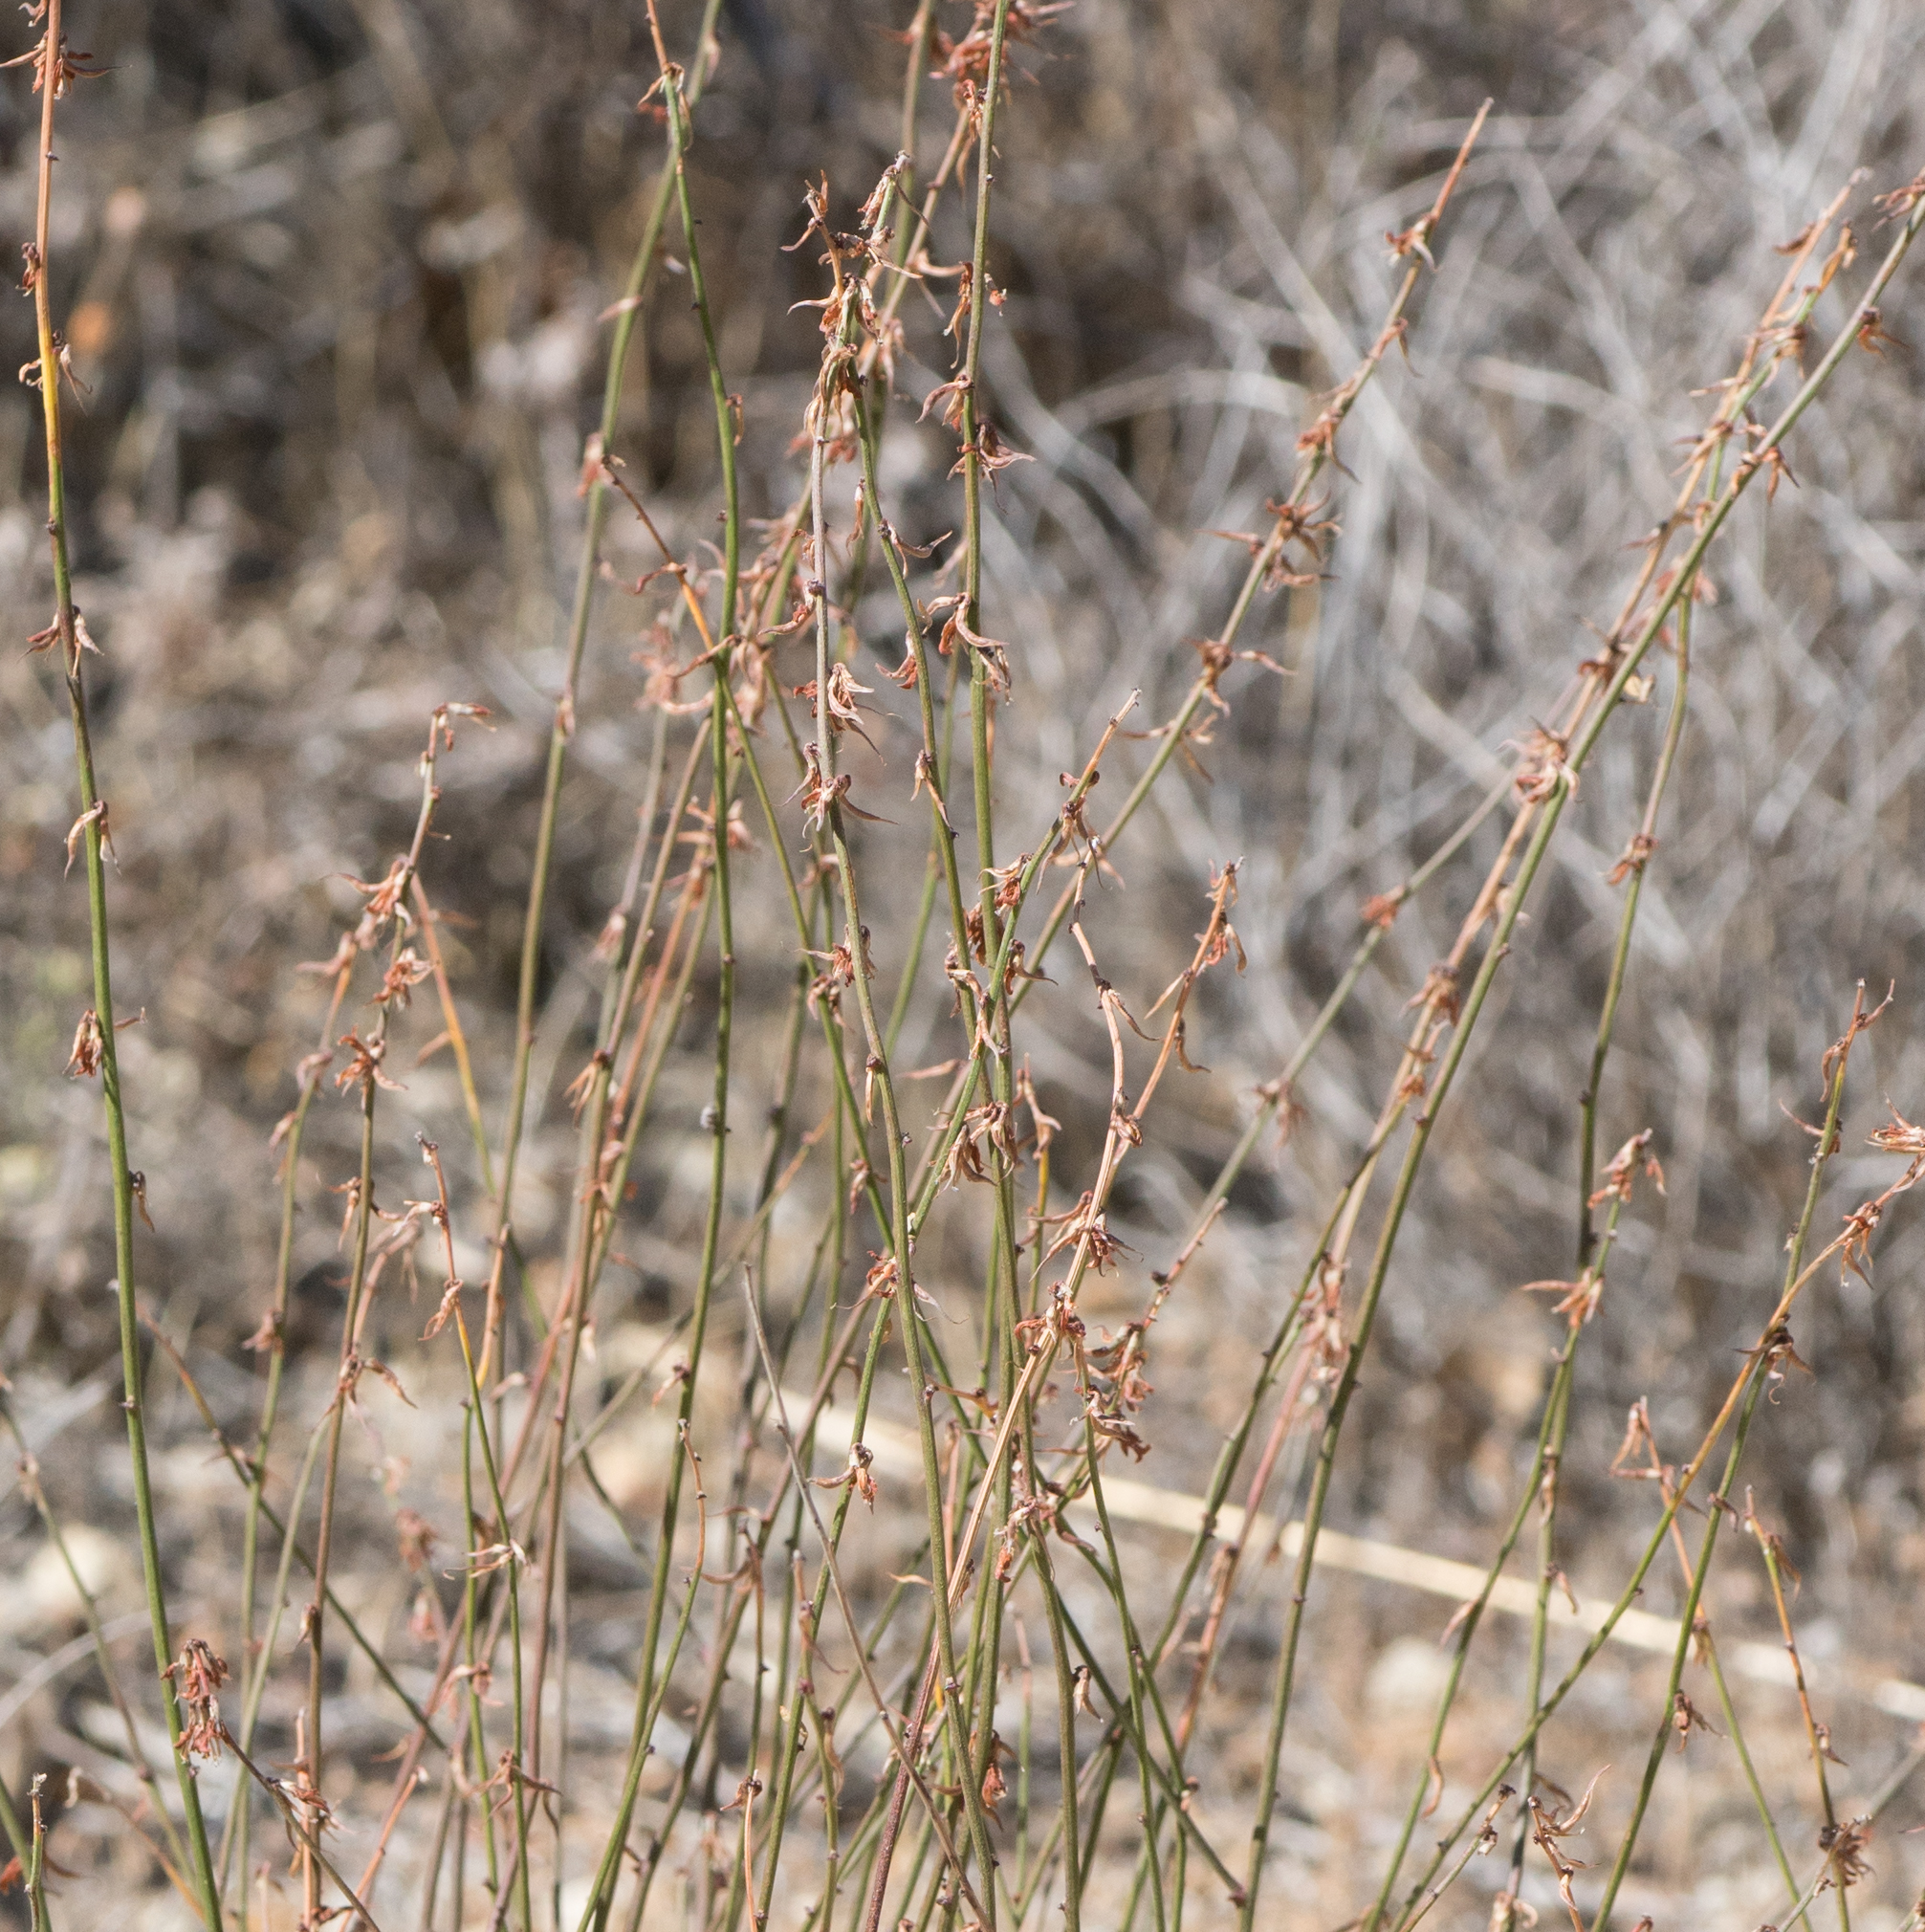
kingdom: Plantae
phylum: Tracheophyta
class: Magnoliopsida
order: Fabales
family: Fabaceae
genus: Acmispon
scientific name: Acmispon glaber
